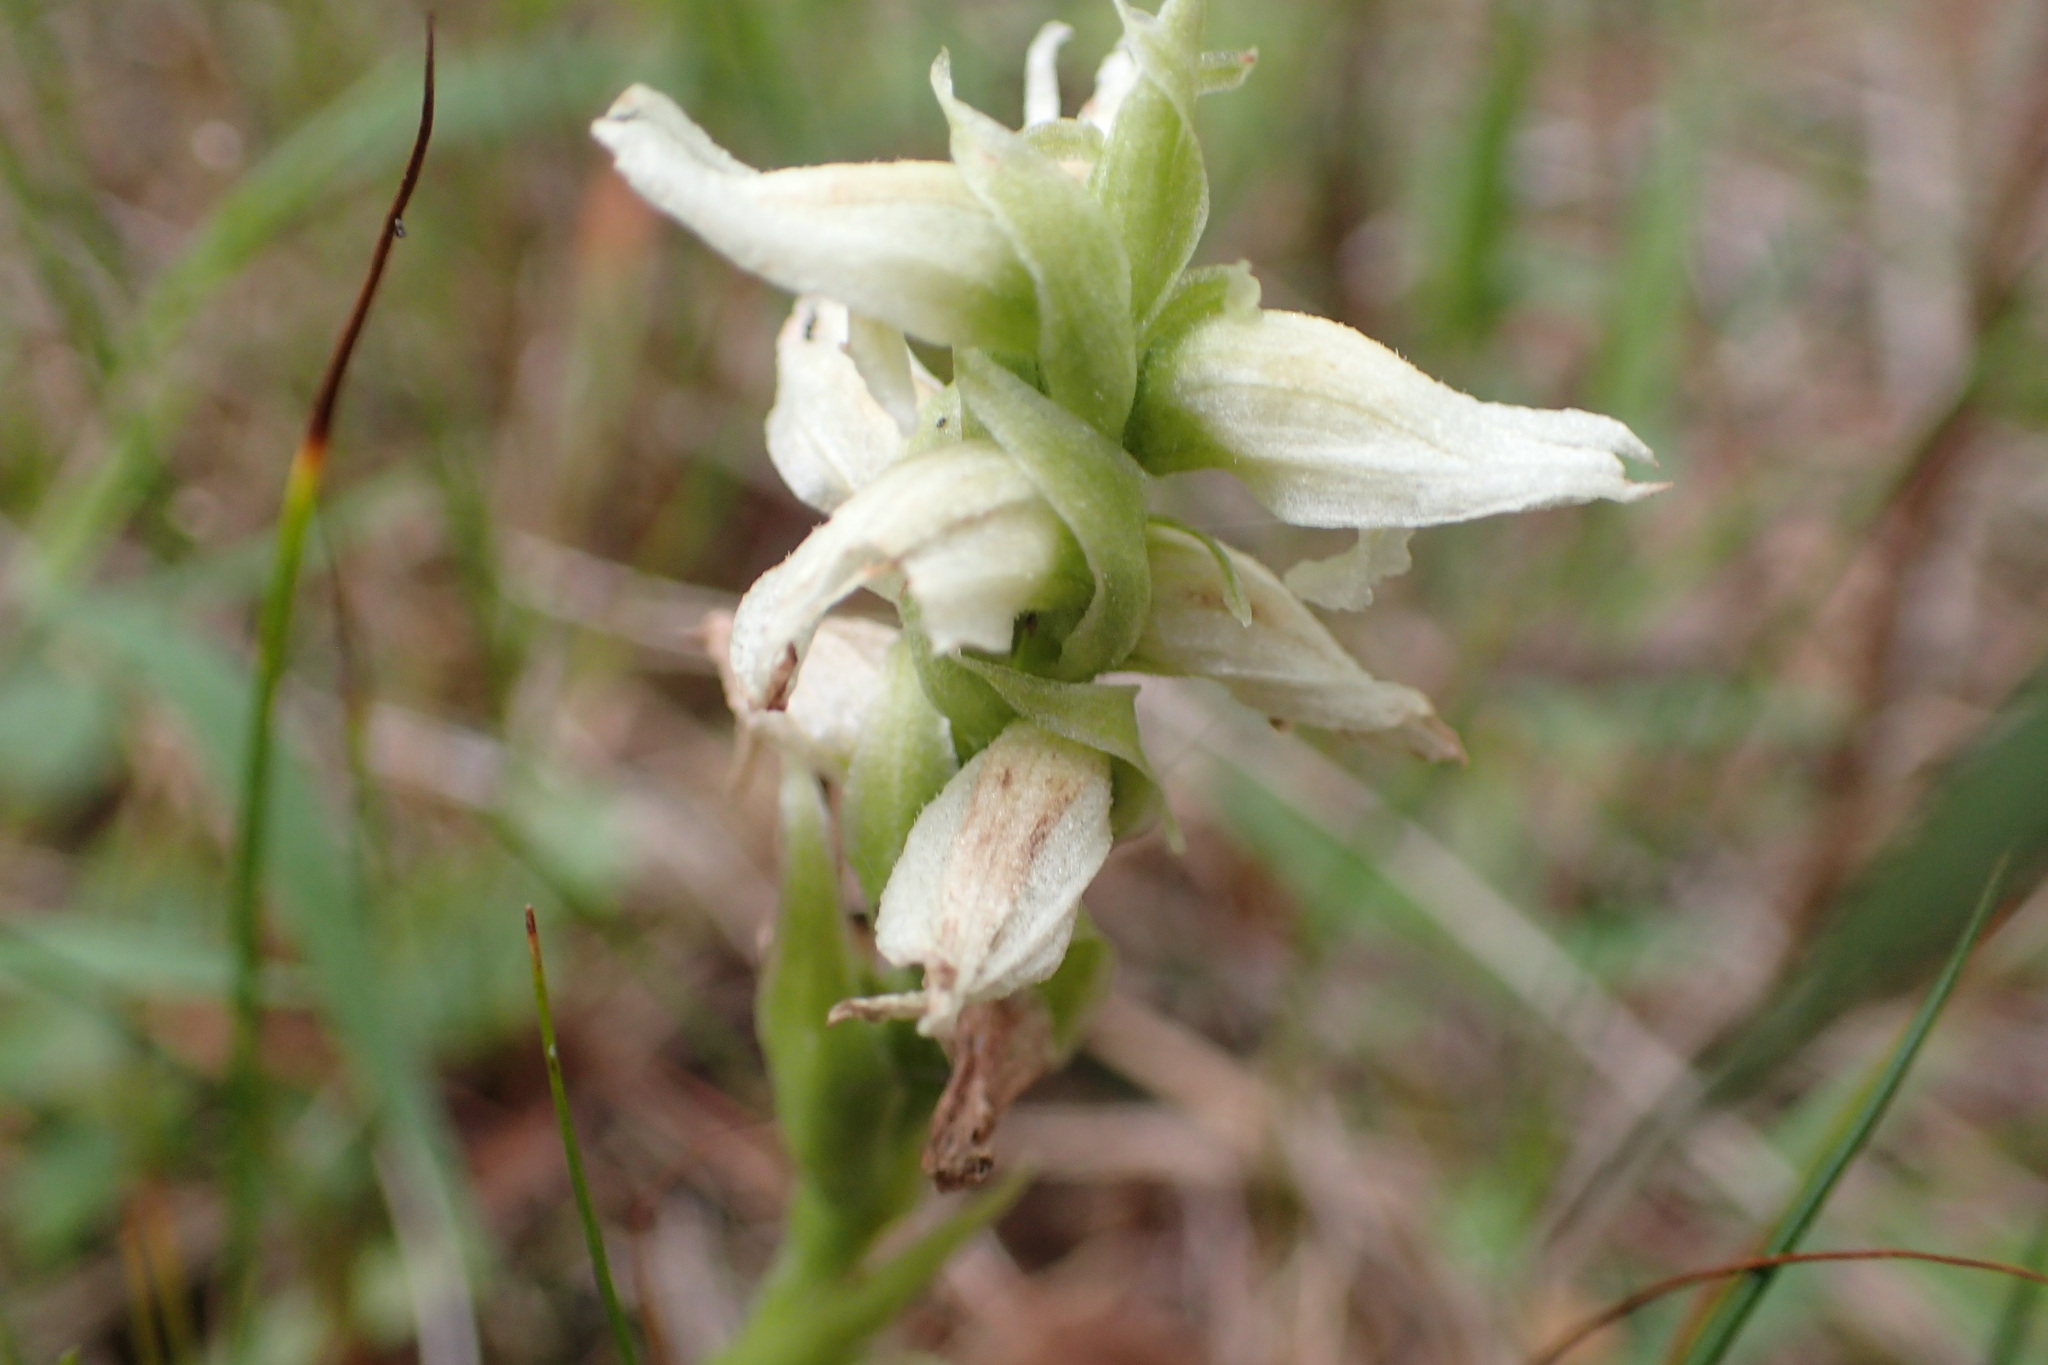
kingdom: Plantae
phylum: Tracheophyta
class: Liliopsida
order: Asparagales
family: Orchidaceae
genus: Spiranthes
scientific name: Spiranthes romanzoffiana
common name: Irish lady's-tresses
